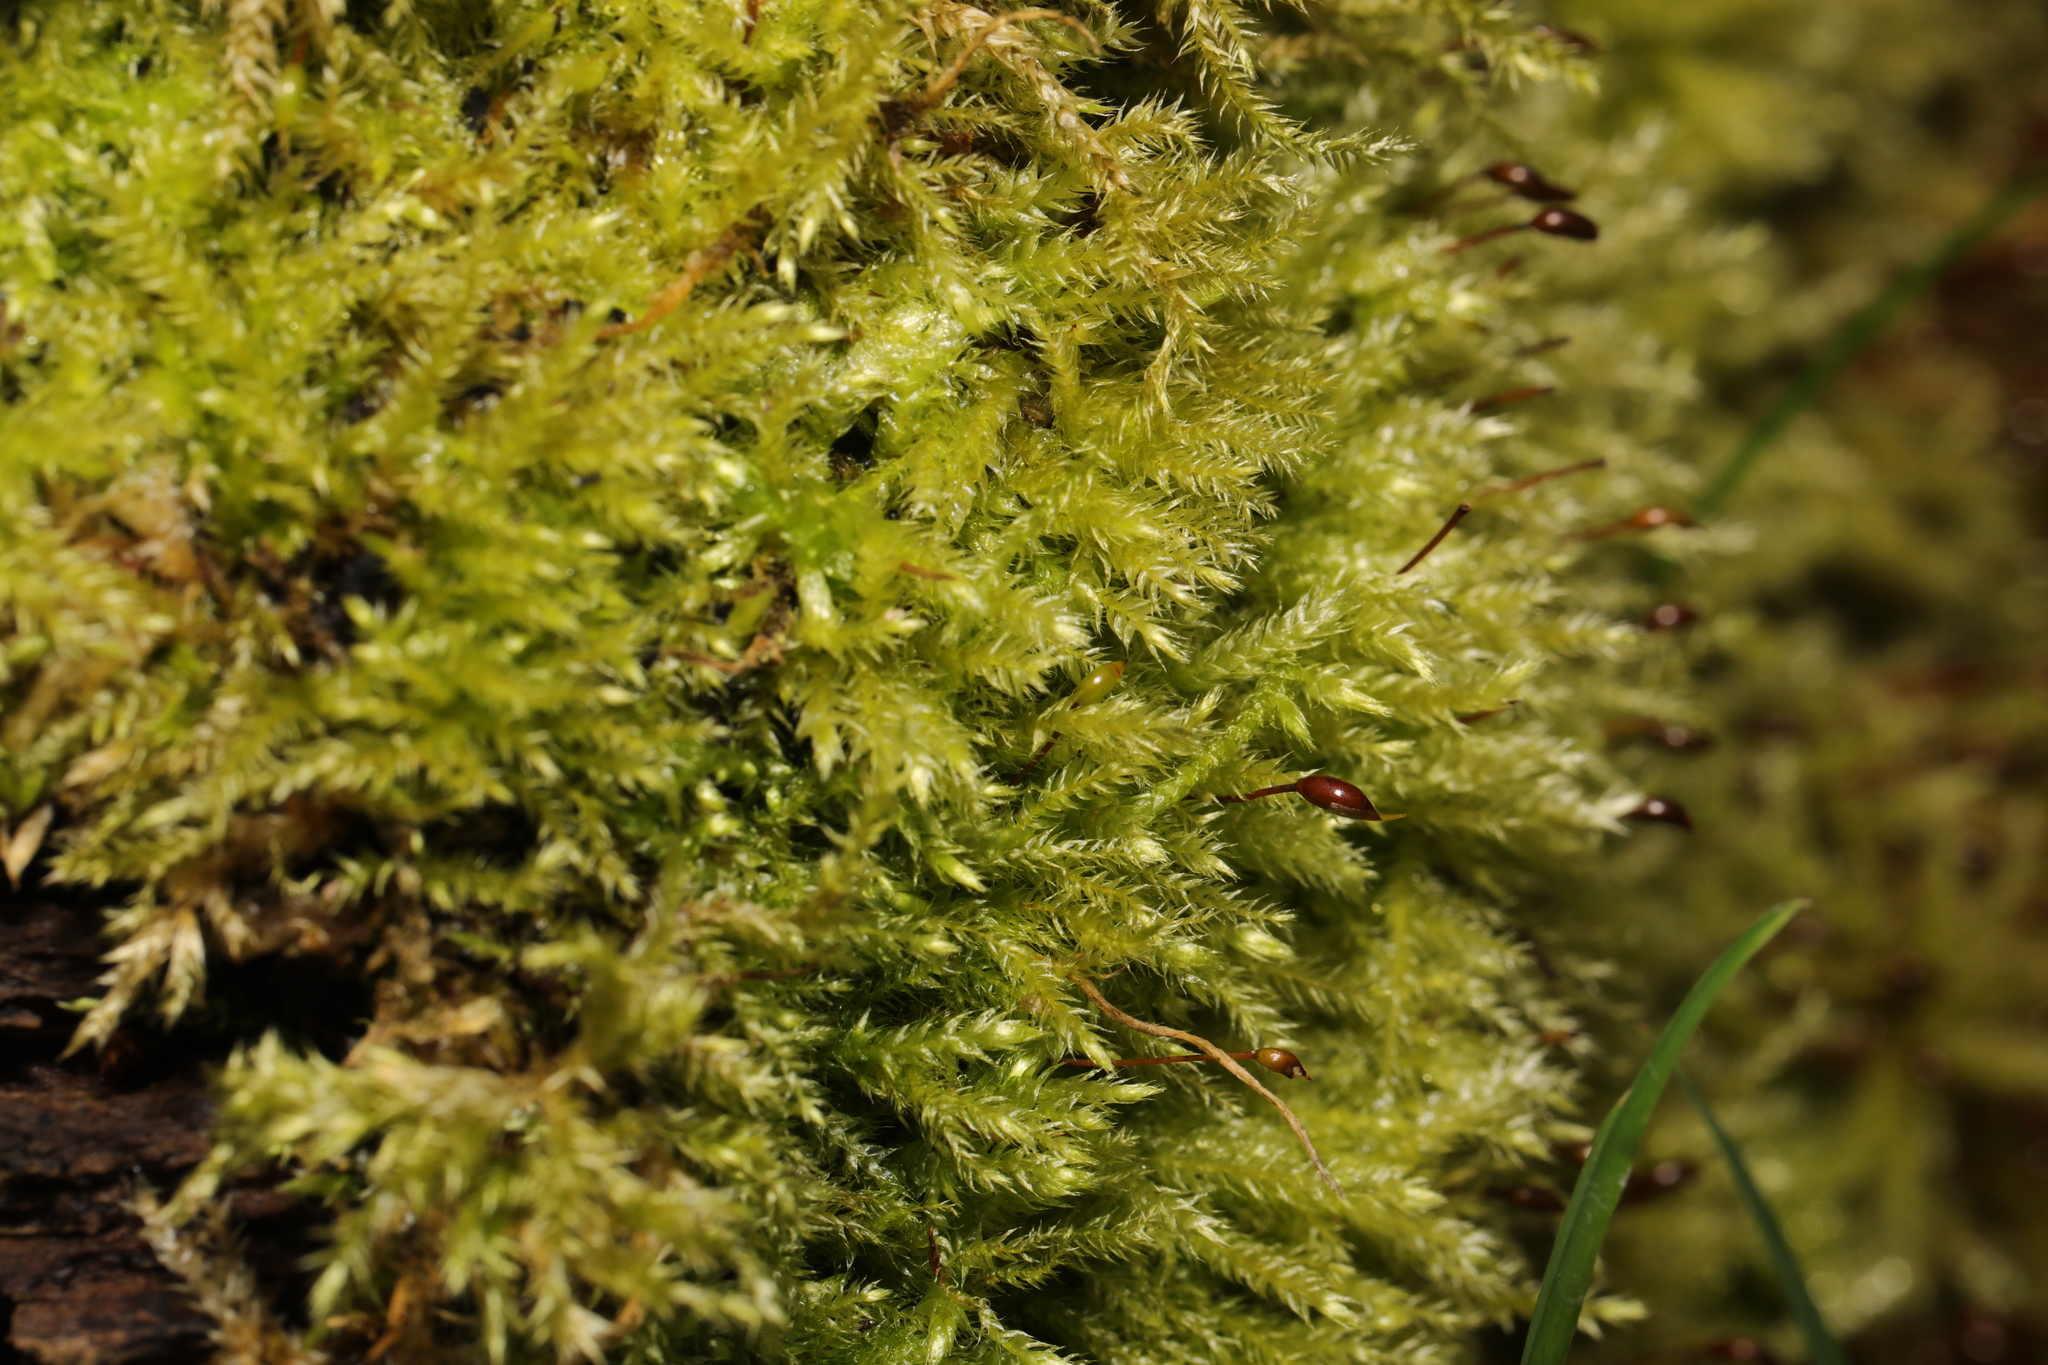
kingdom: Plantae
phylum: Bryophyta
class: Bryopsida
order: Hypnales
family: Brachytheciaceae
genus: Brachythecium
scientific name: Brachythecium rutabulum
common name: Rough-stalked feather-moss
